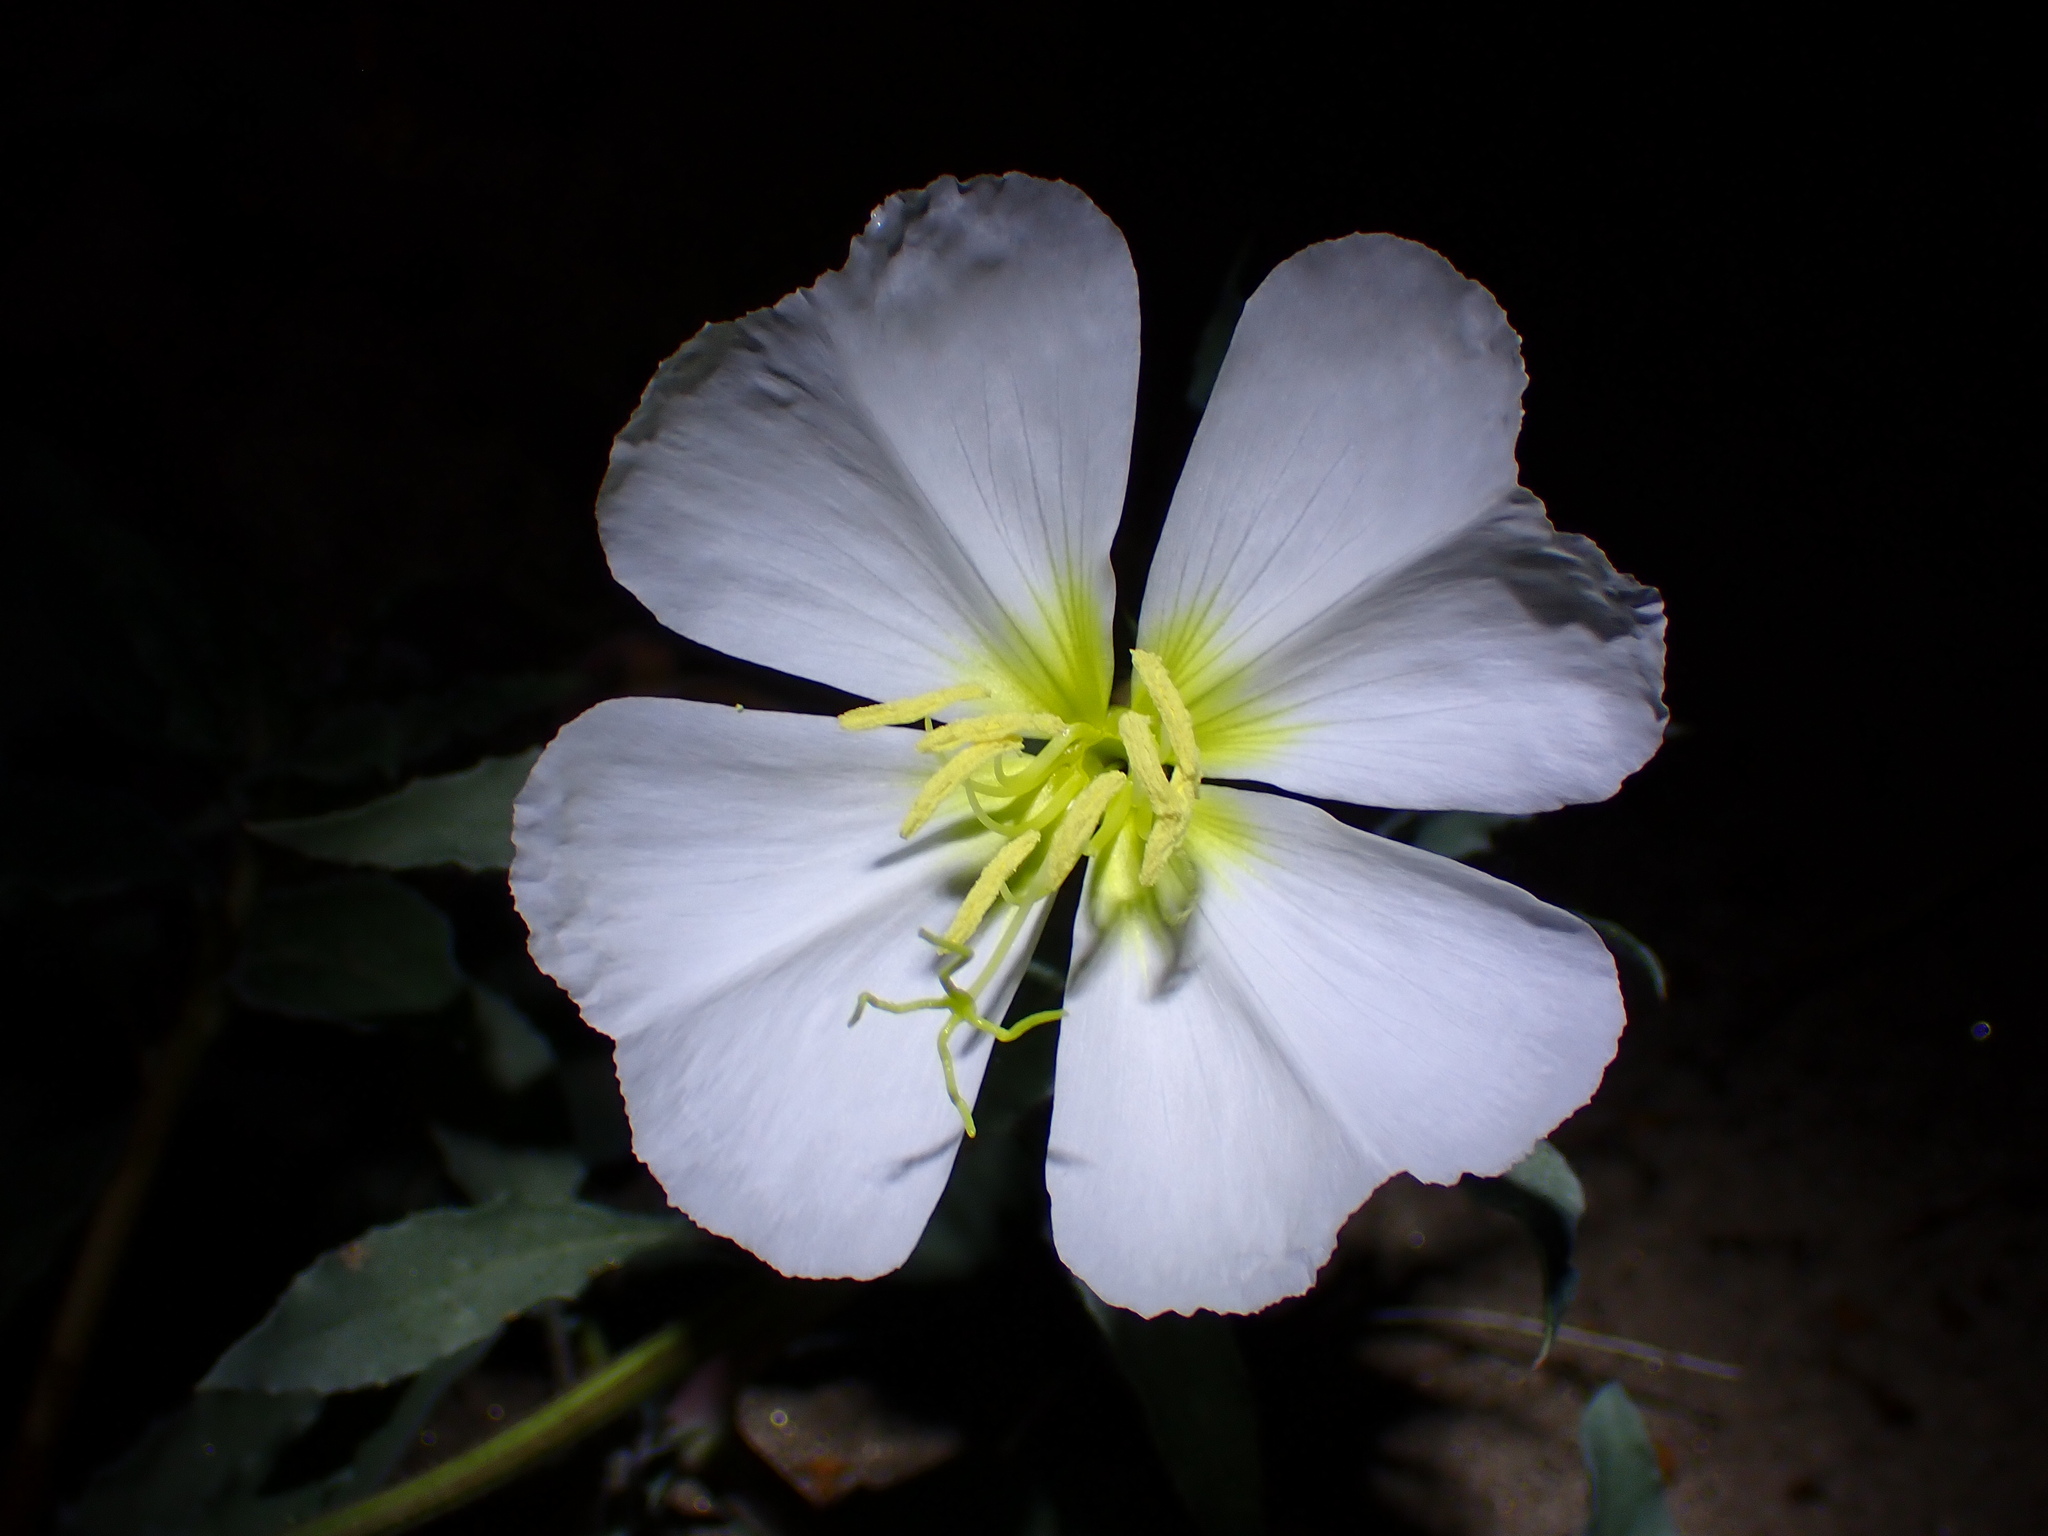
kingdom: Plantae
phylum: Tracheophyta
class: Magnoliopsida
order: Myrtales
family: Onagraceae
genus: Oenothera
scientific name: Oenothera deltoides
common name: Basket evening-primrose
